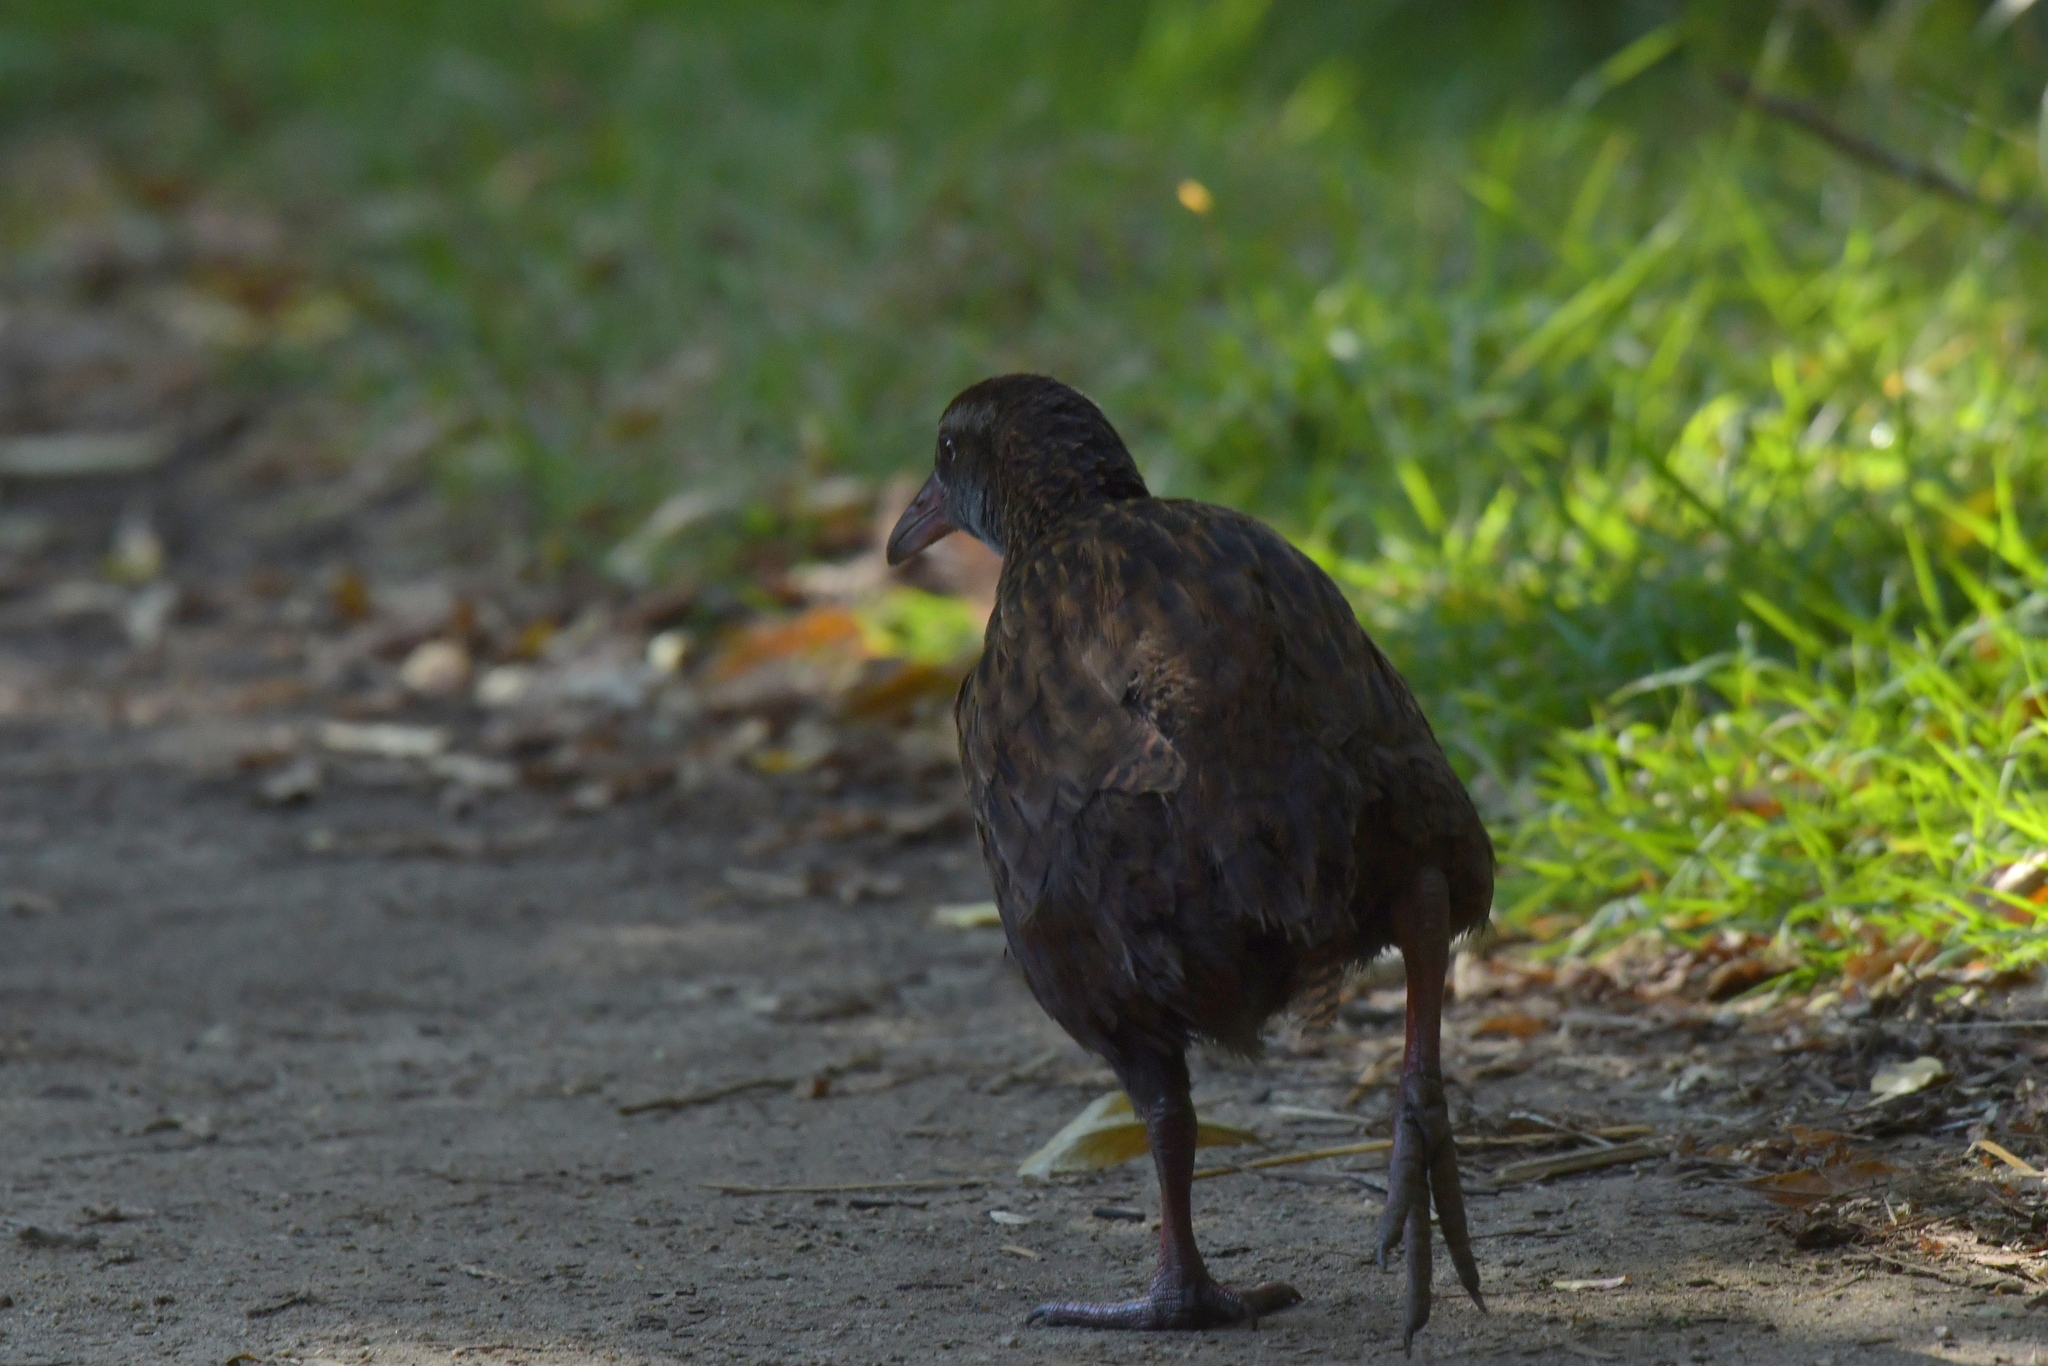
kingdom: Animalia
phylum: Chordata
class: Aves
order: Gruiformes
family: Rallidae
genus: Gallirallus
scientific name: Gallirallus australis
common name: Weka
